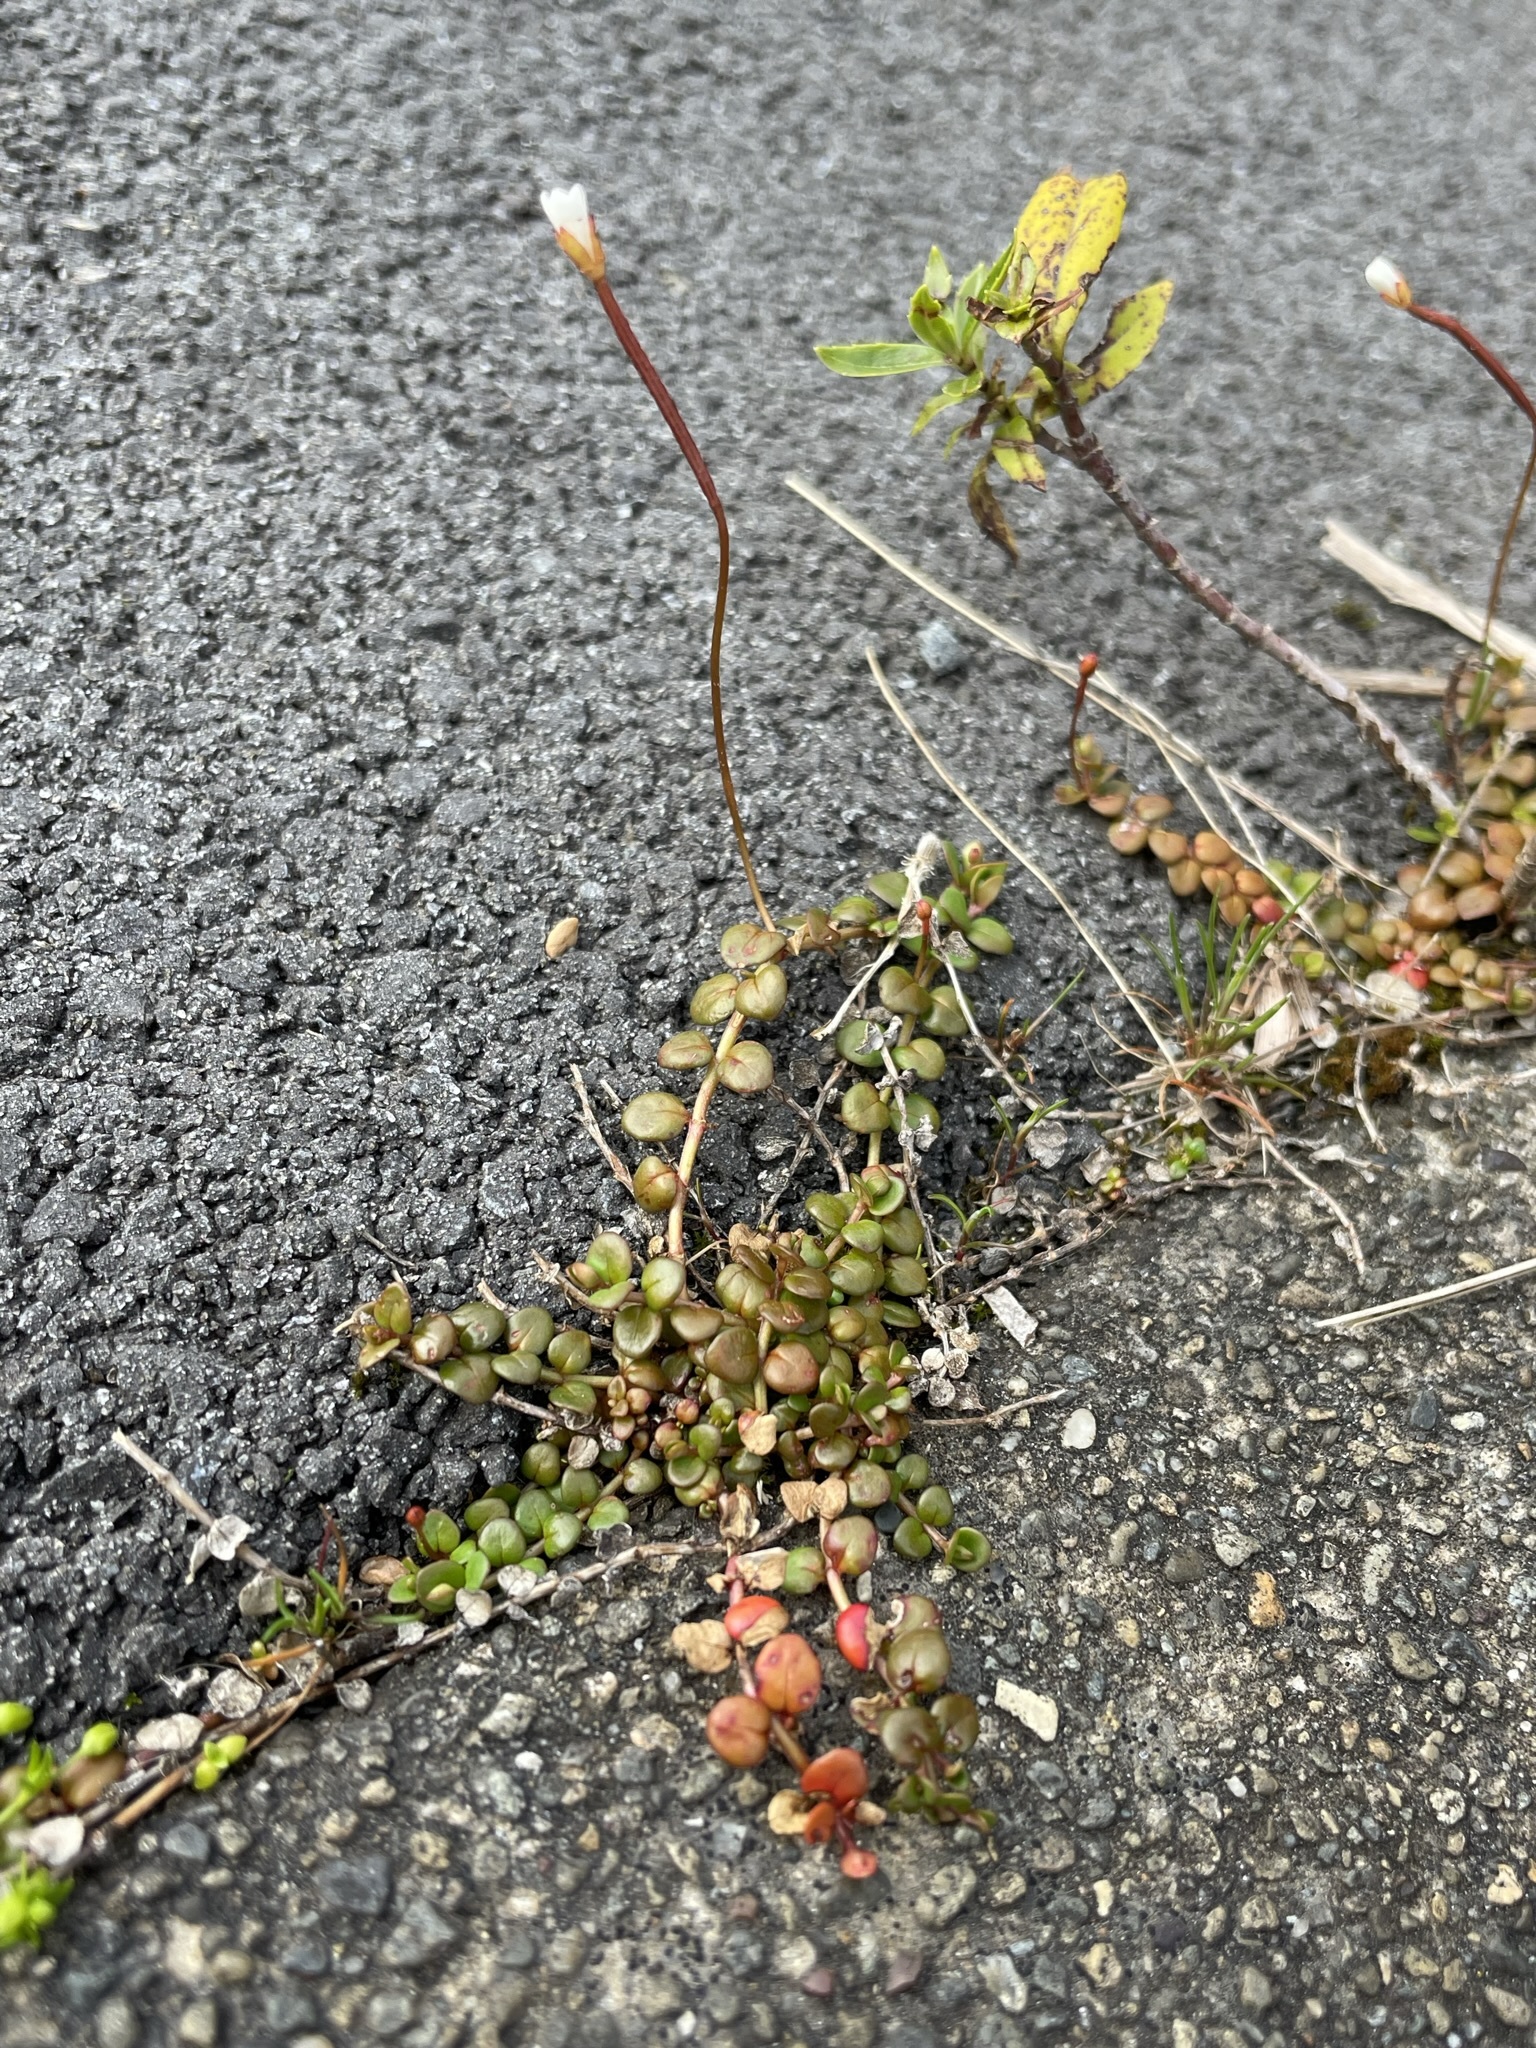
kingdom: Plantae
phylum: Tracheophyta
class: Magnoliopsida
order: Myrtales
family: Onagraceae
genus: Epilobium
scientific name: Epilobium brunnescens
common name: New zealand willowherb
